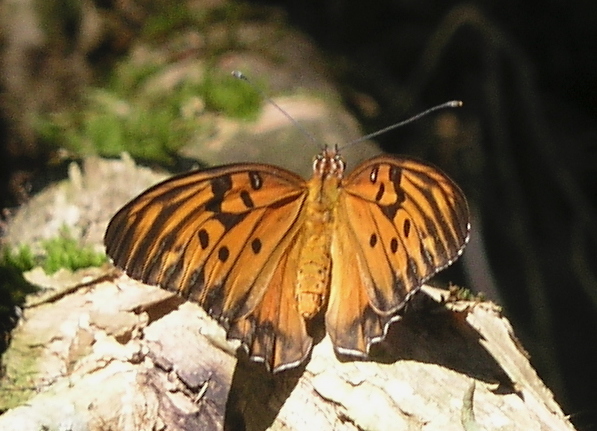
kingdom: Animalia
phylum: Arthropoda
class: Insecta
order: Lepidoptera
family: Nymphalidae
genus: Dione
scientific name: Dione vanillae
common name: Gulf fritillary
